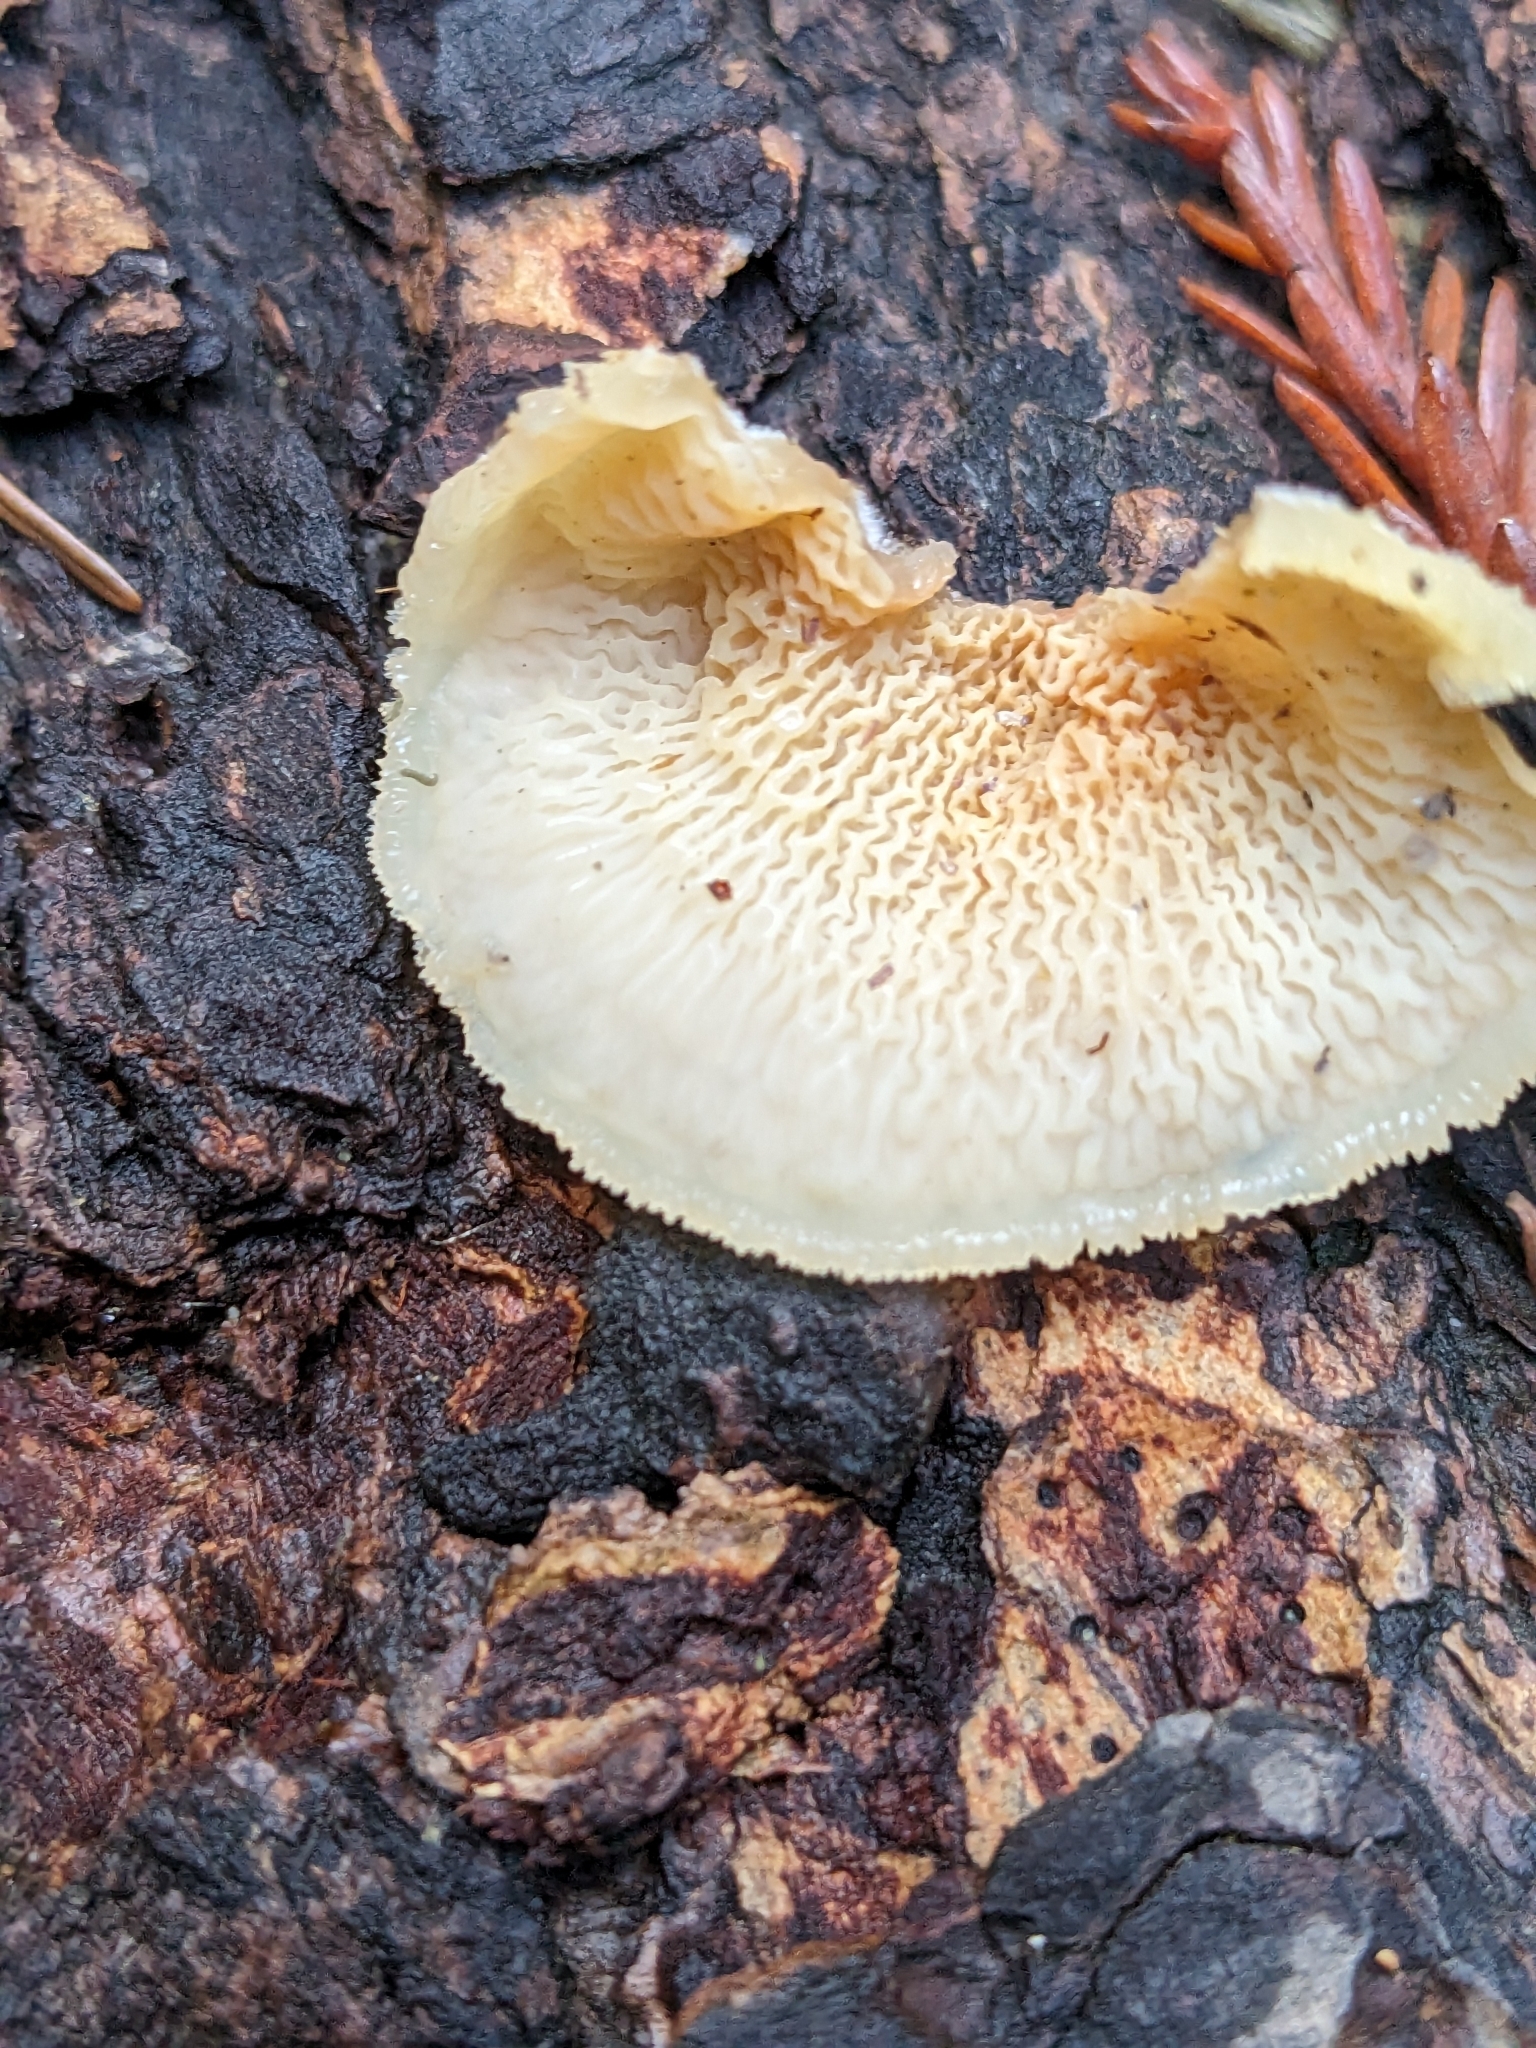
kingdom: Fungi
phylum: Basidiomycota
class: Agaricomycetes
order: Polyporales
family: Meruliaceae
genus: Phlebia
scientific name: Phlebia tremellosa
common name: Jelly rot
